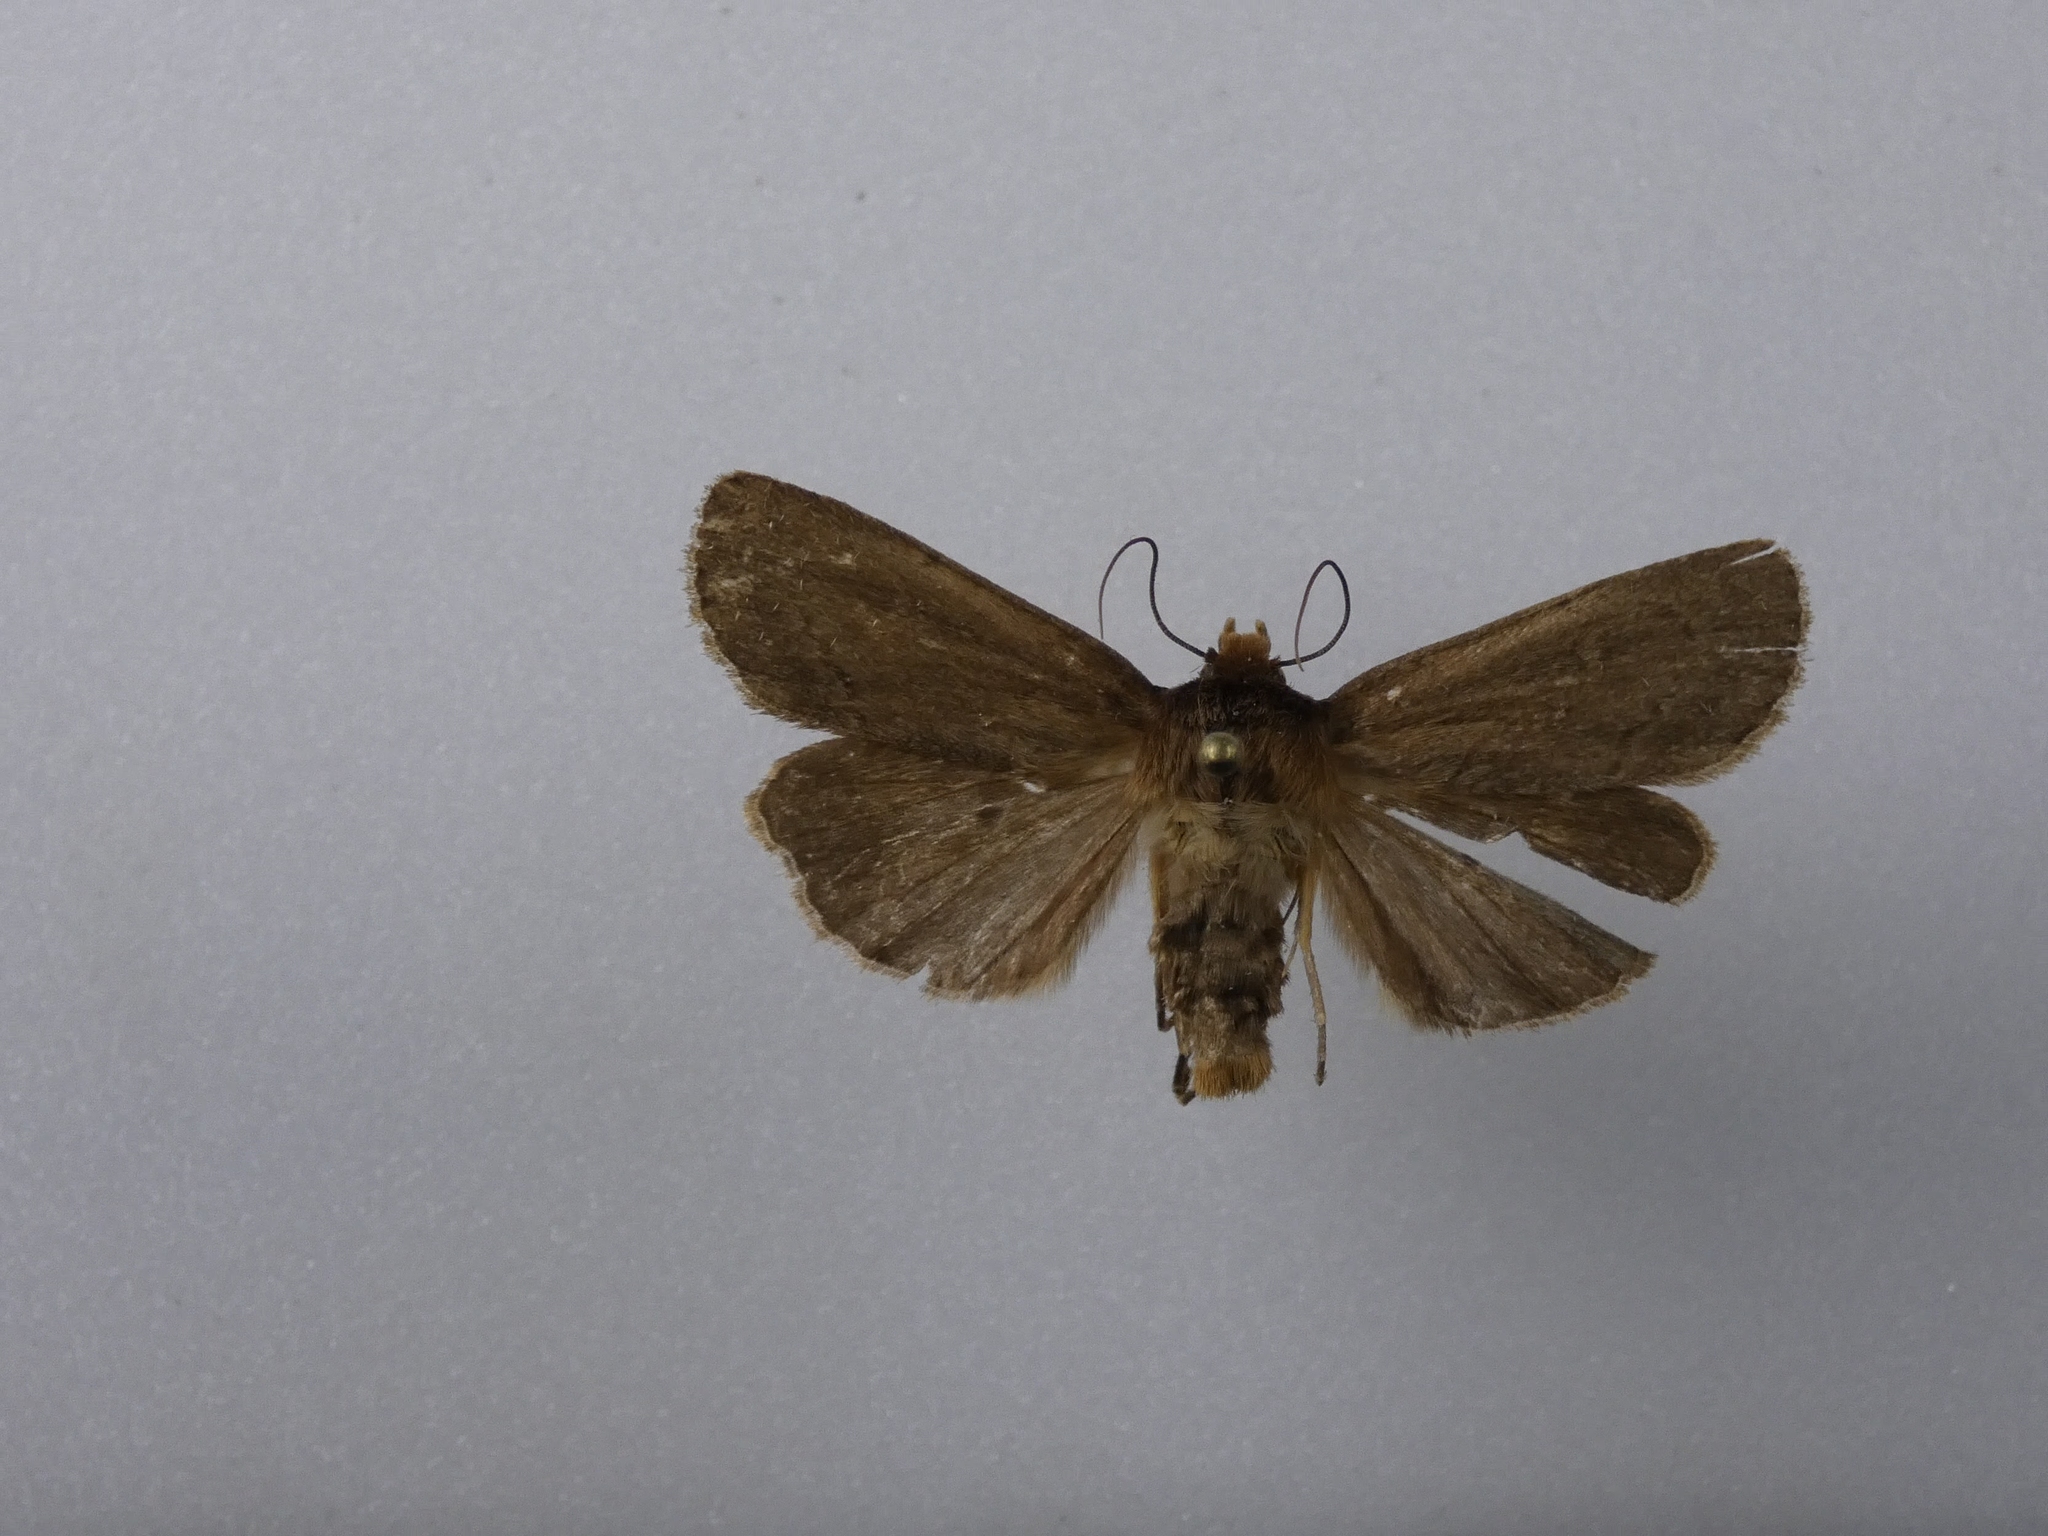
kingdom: Animalia
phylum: Arthropoda
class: Insecta
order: Lepidoptera
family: Noctuidae
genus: Bityla
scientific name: Bityla defigurata
